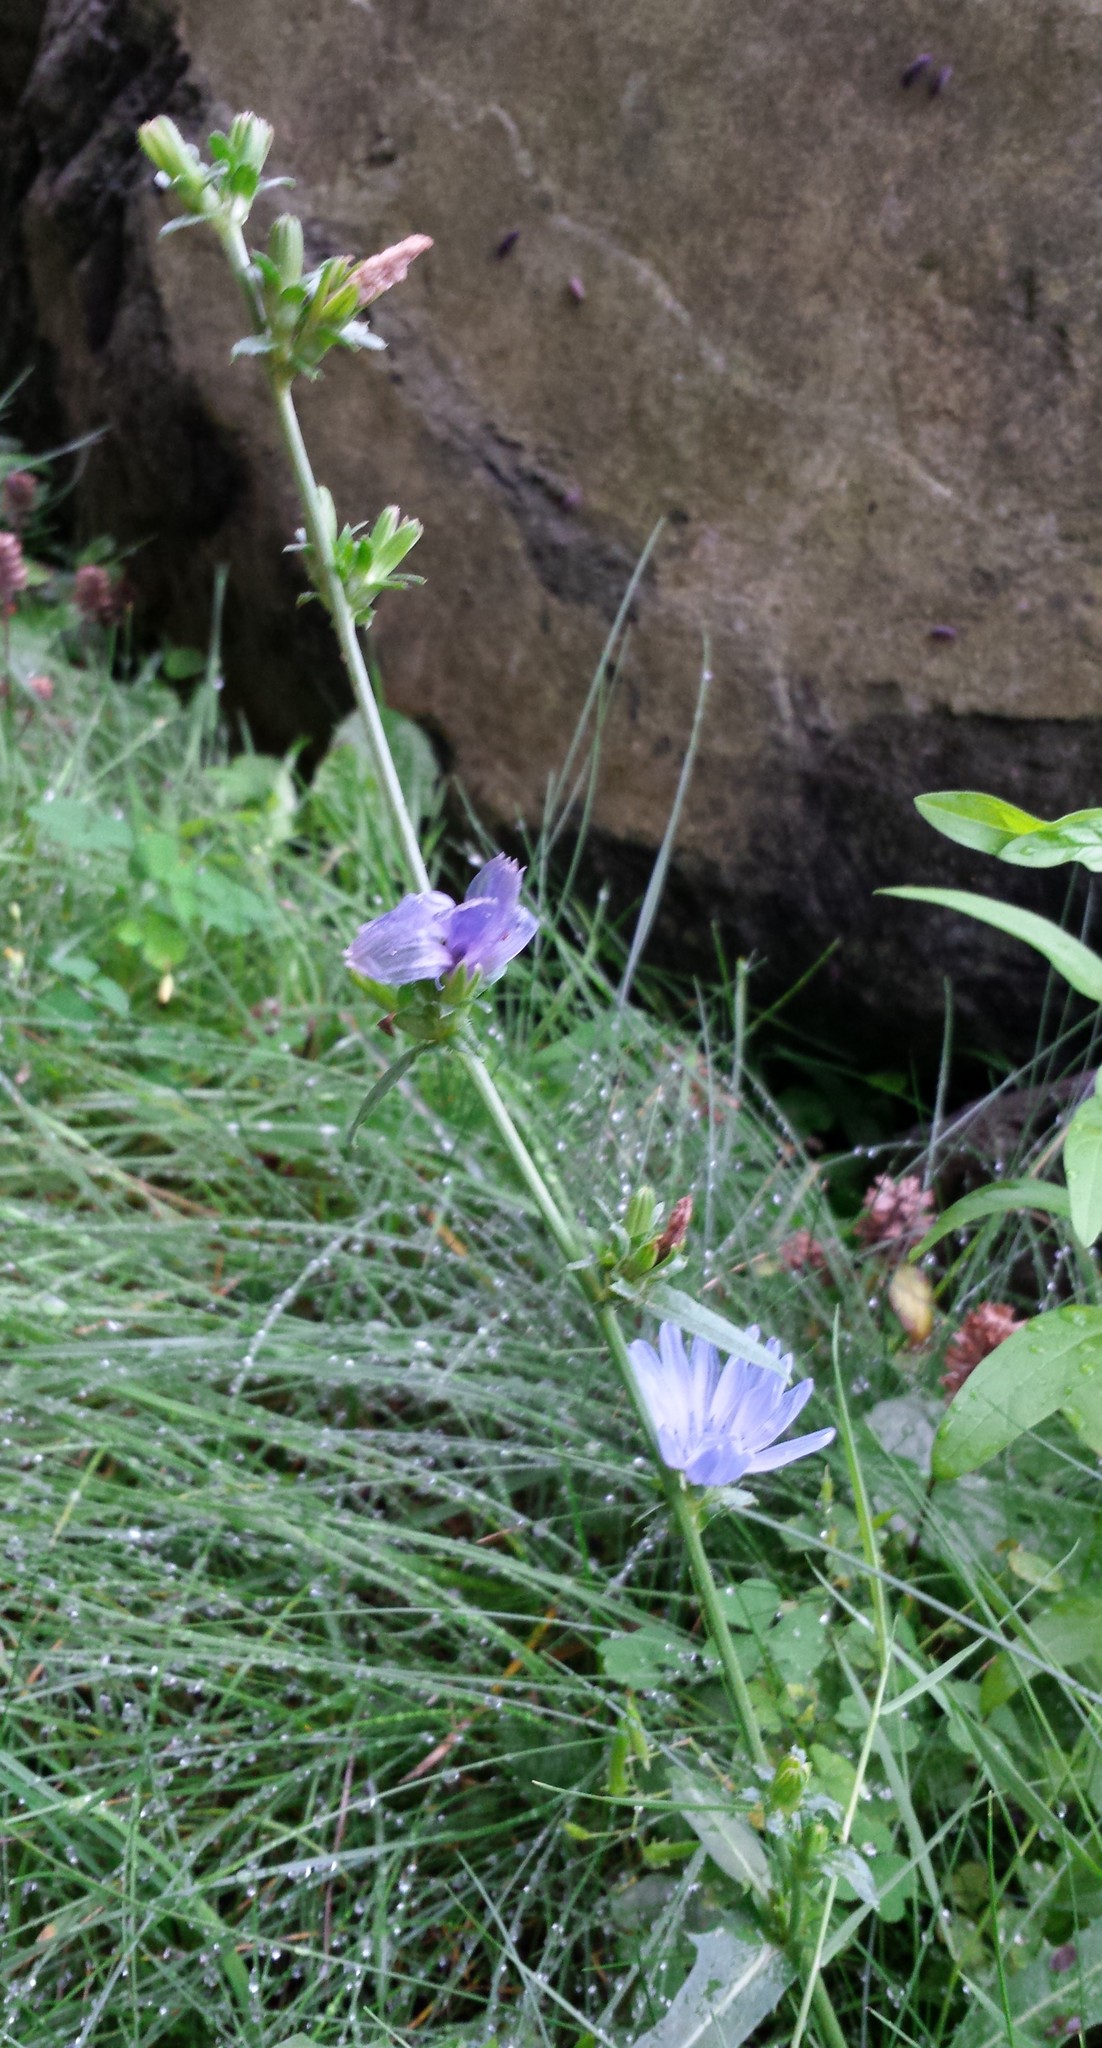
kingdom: Plantae
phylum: Tracheophyta
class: Magnoliopsida
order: Asterales
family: Asteraceae
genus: Cichorium
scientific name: Cichorium intybus
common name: Chicory
